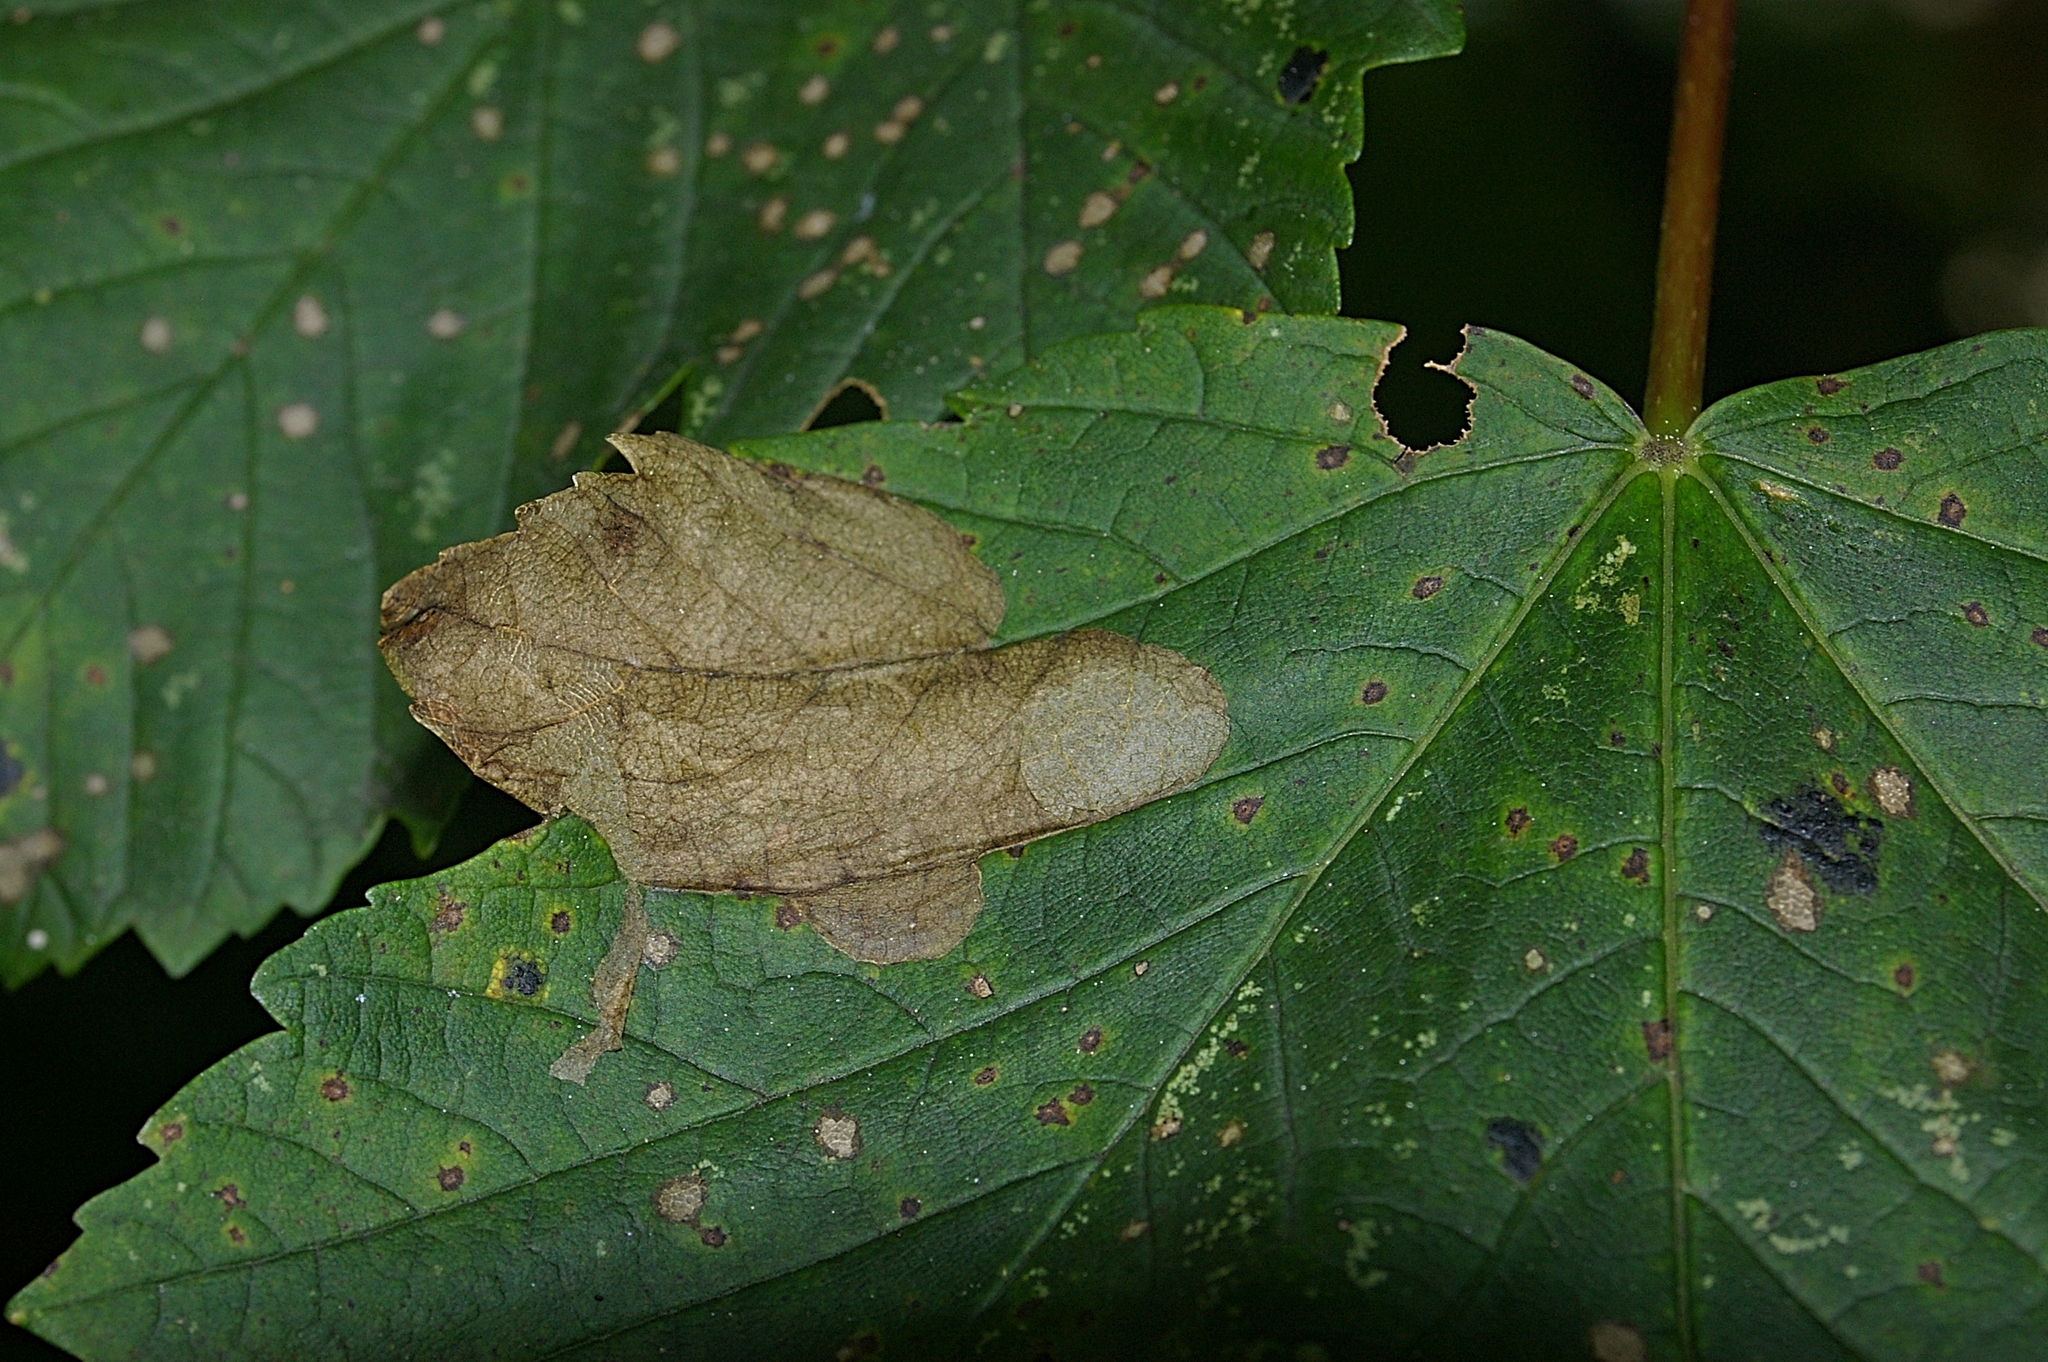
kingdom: Fungi
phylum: Ascomycota
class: Leotiomycetes
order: Rhytismatales
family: Rhytismataceae
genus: Rhytisma
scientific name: Rhytisma acerinum
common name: European tar spot
